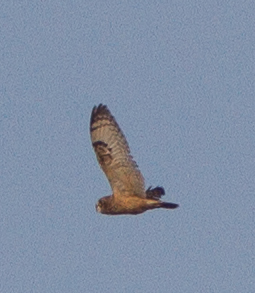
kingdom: Animalia
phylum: Chordata
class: Aves
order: Strigiformes
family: Strigidae
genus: Asio
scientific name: Asio flammeus
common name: Short-eared owl
